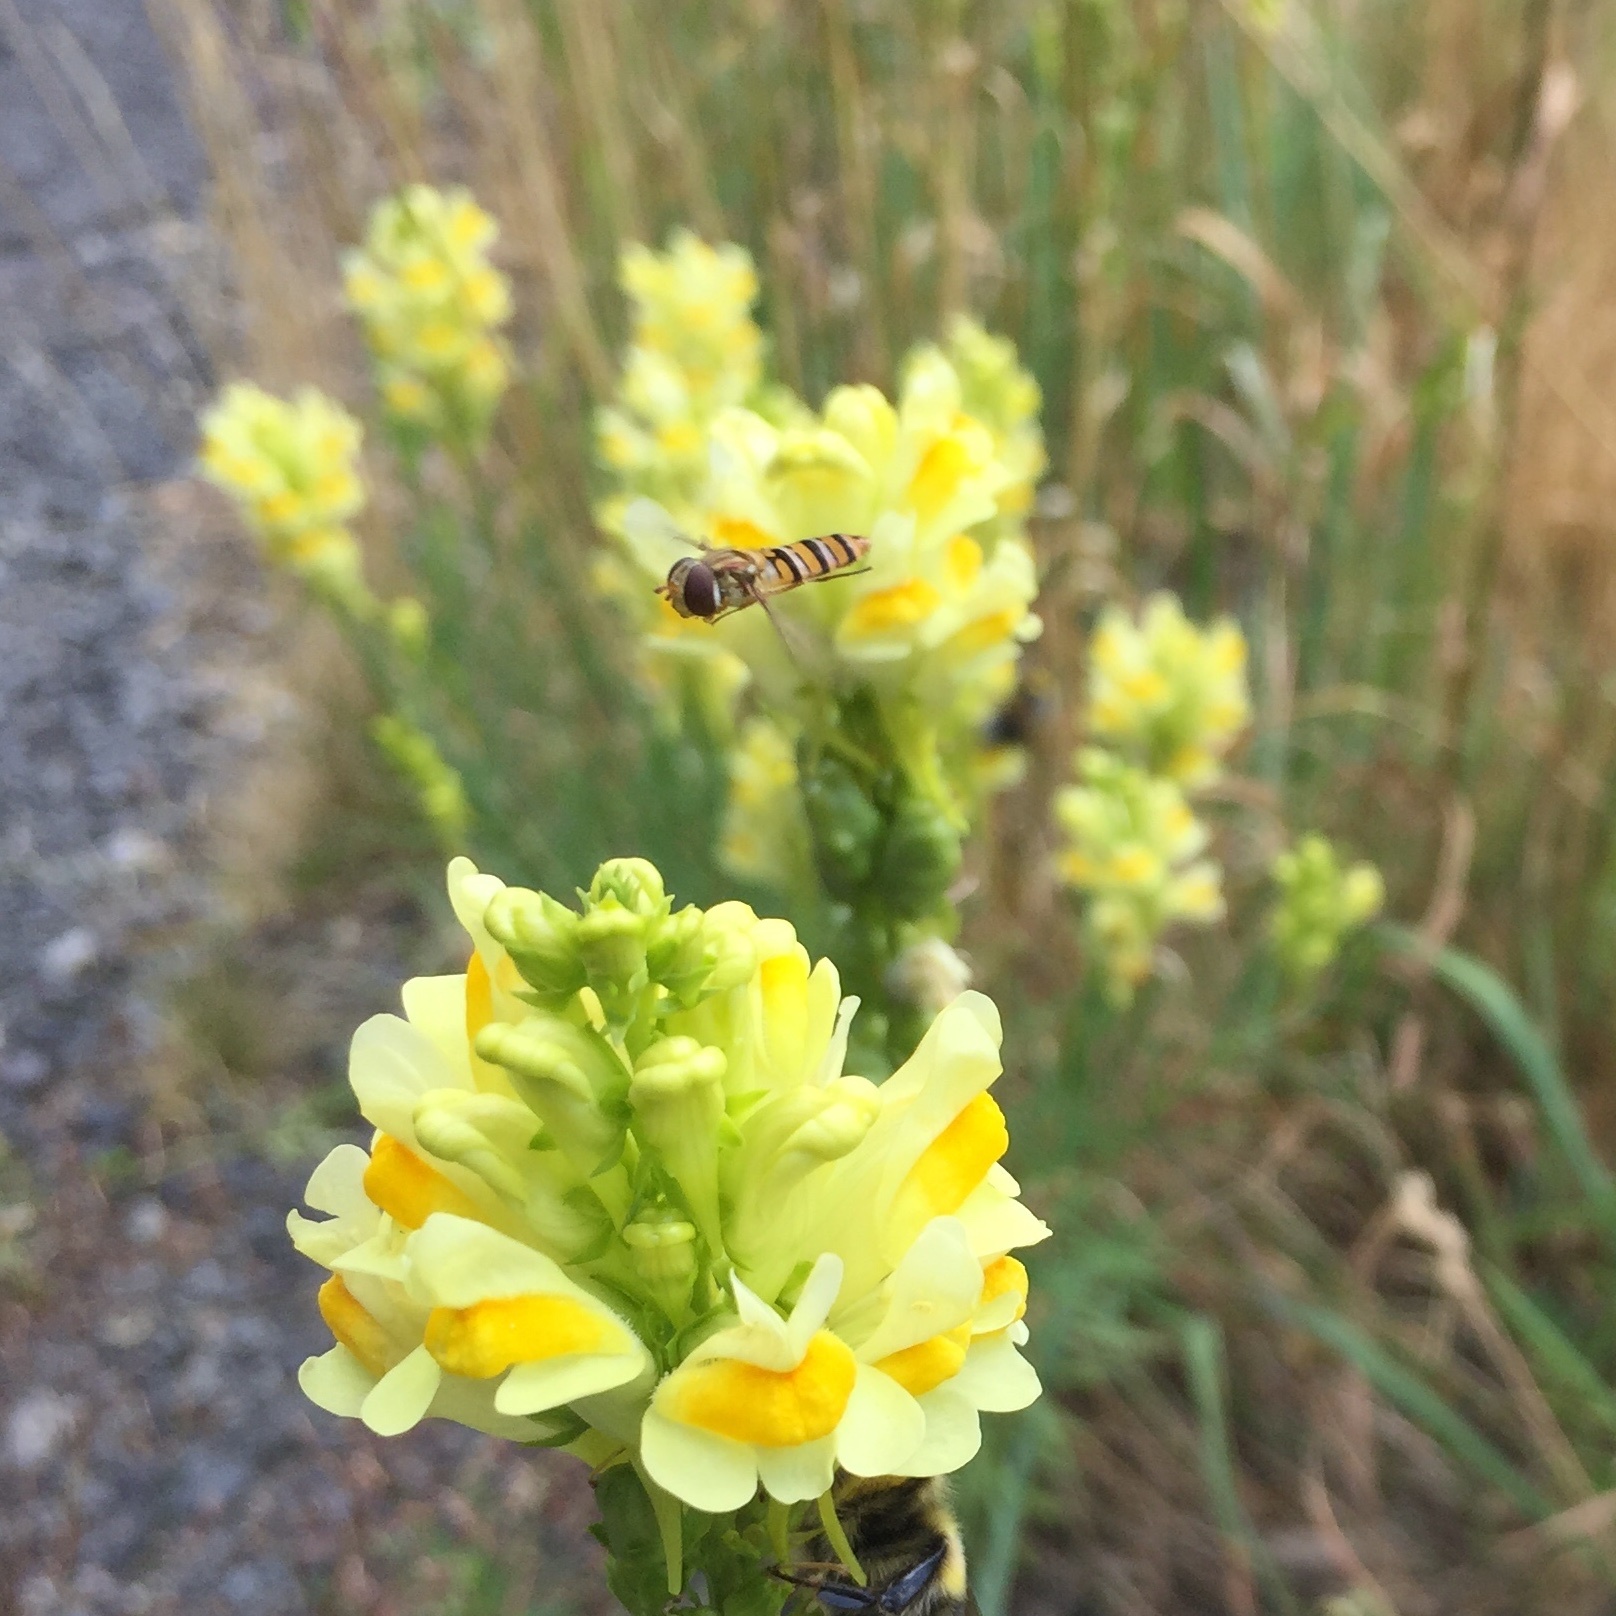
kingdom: Animalia
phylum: Arthropoda
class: Insecta
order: Diptera
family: Syrphidae
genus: Episyrphus
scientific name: Episyrphus balteatus
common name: Marmalade hoverfly
